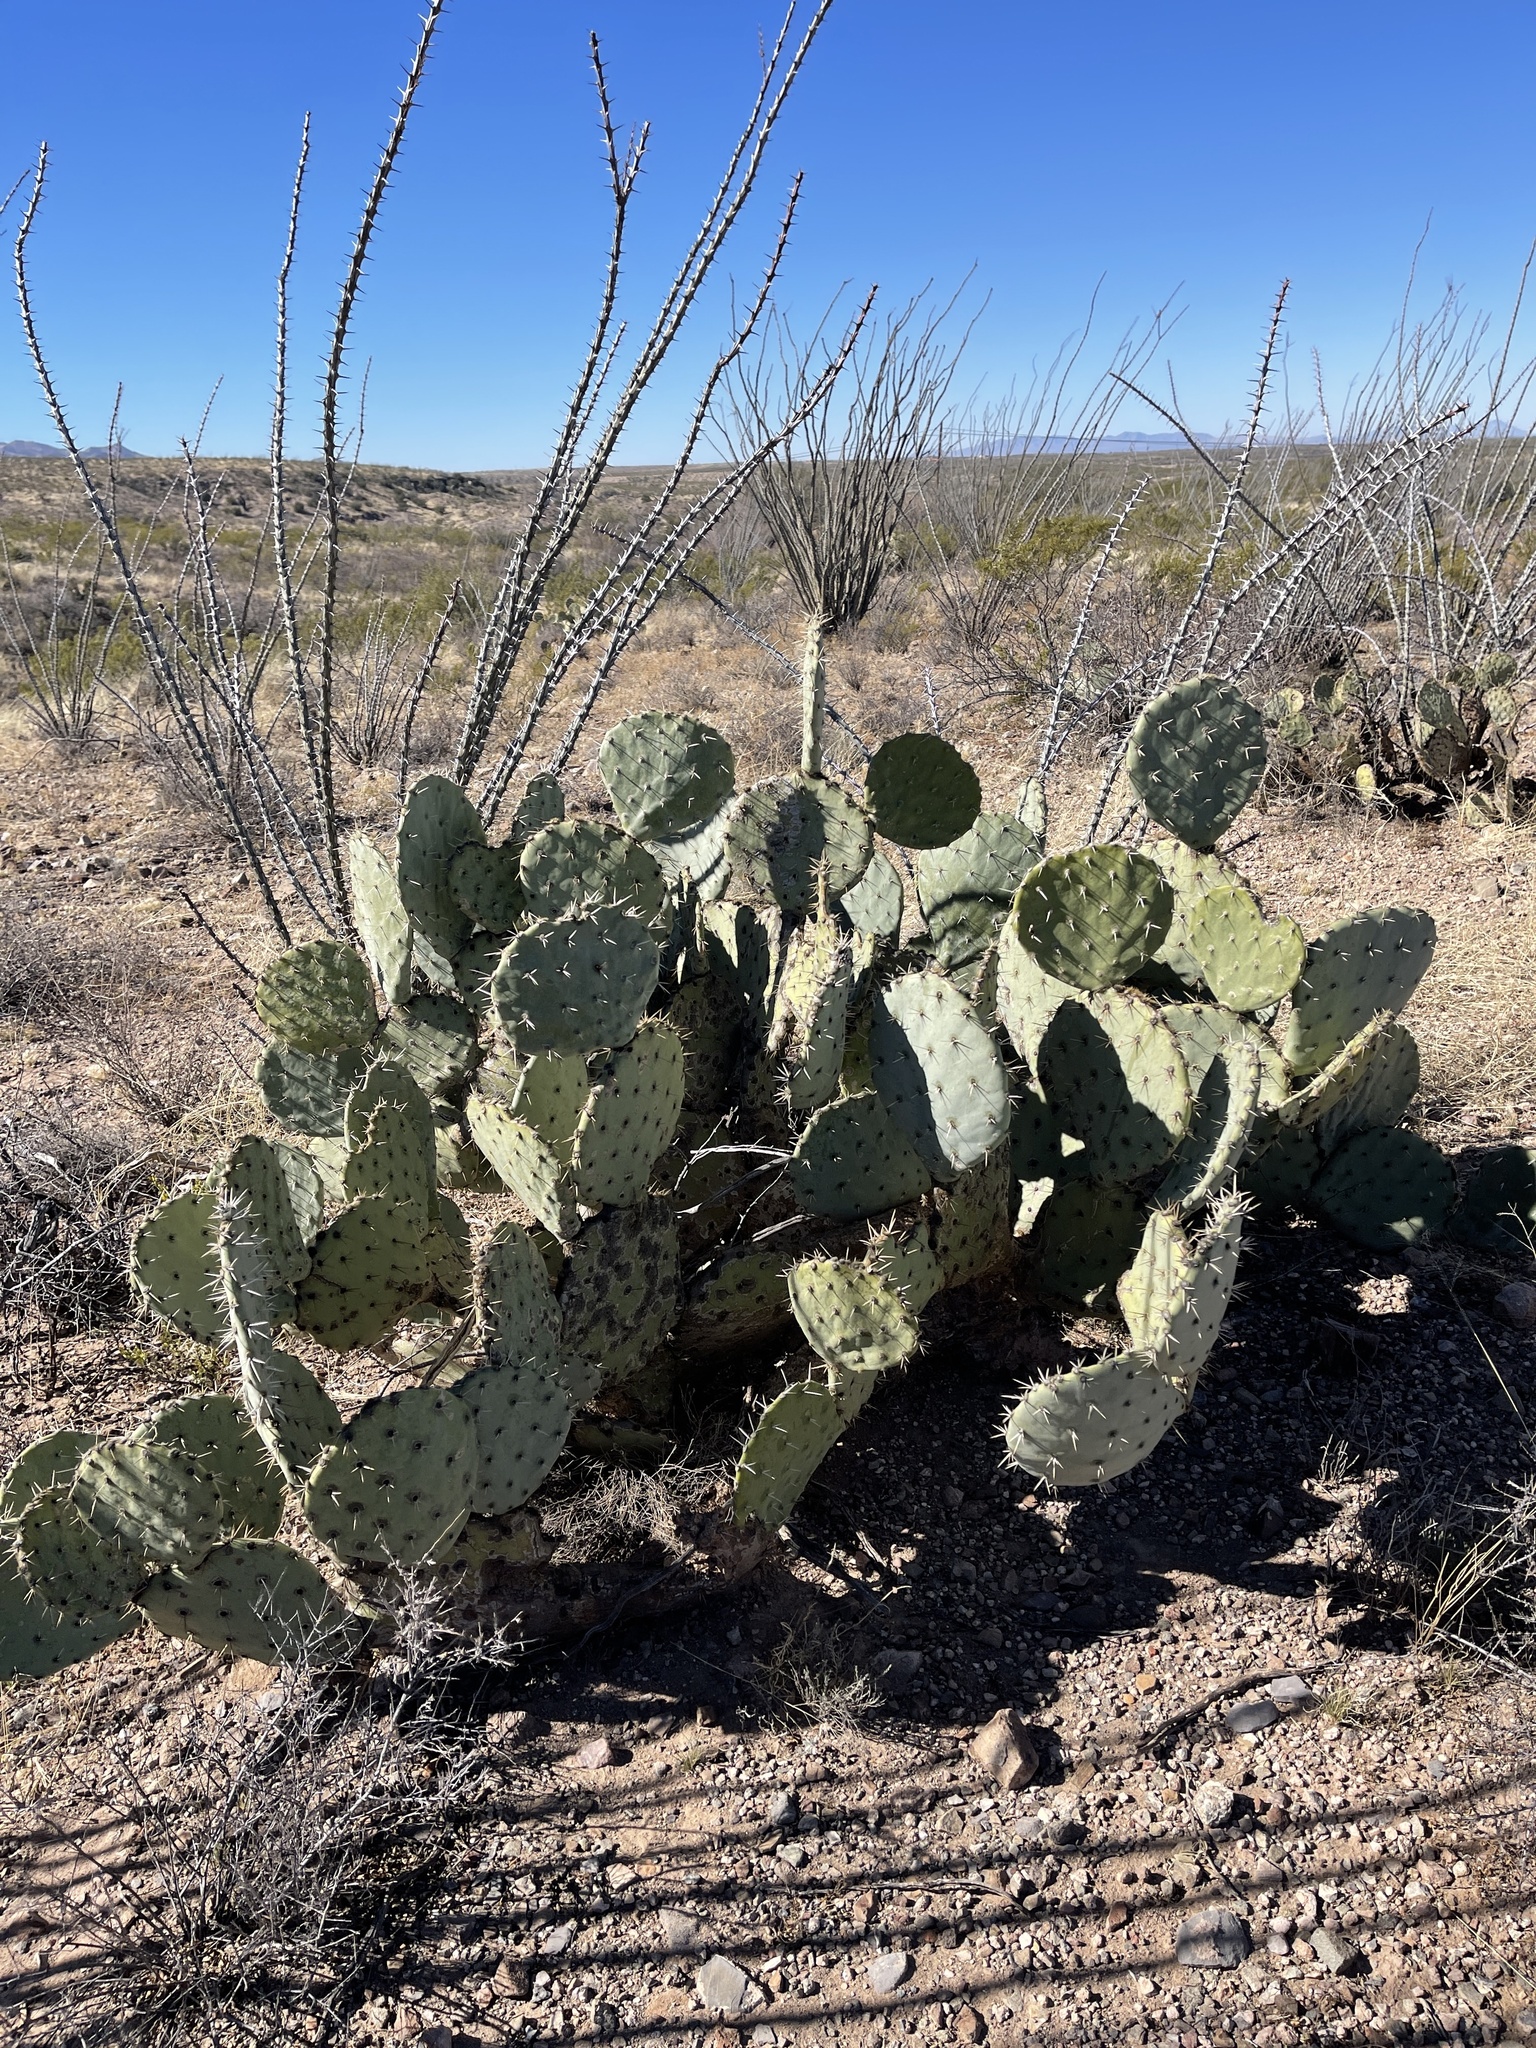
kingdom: Plantae
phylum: Tracheophyta
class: Magnoliopsida
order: Caryophyllales
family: Cactaceae
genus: Opuntia
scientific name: Opuntia engelmannii
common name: Cactus-apple
